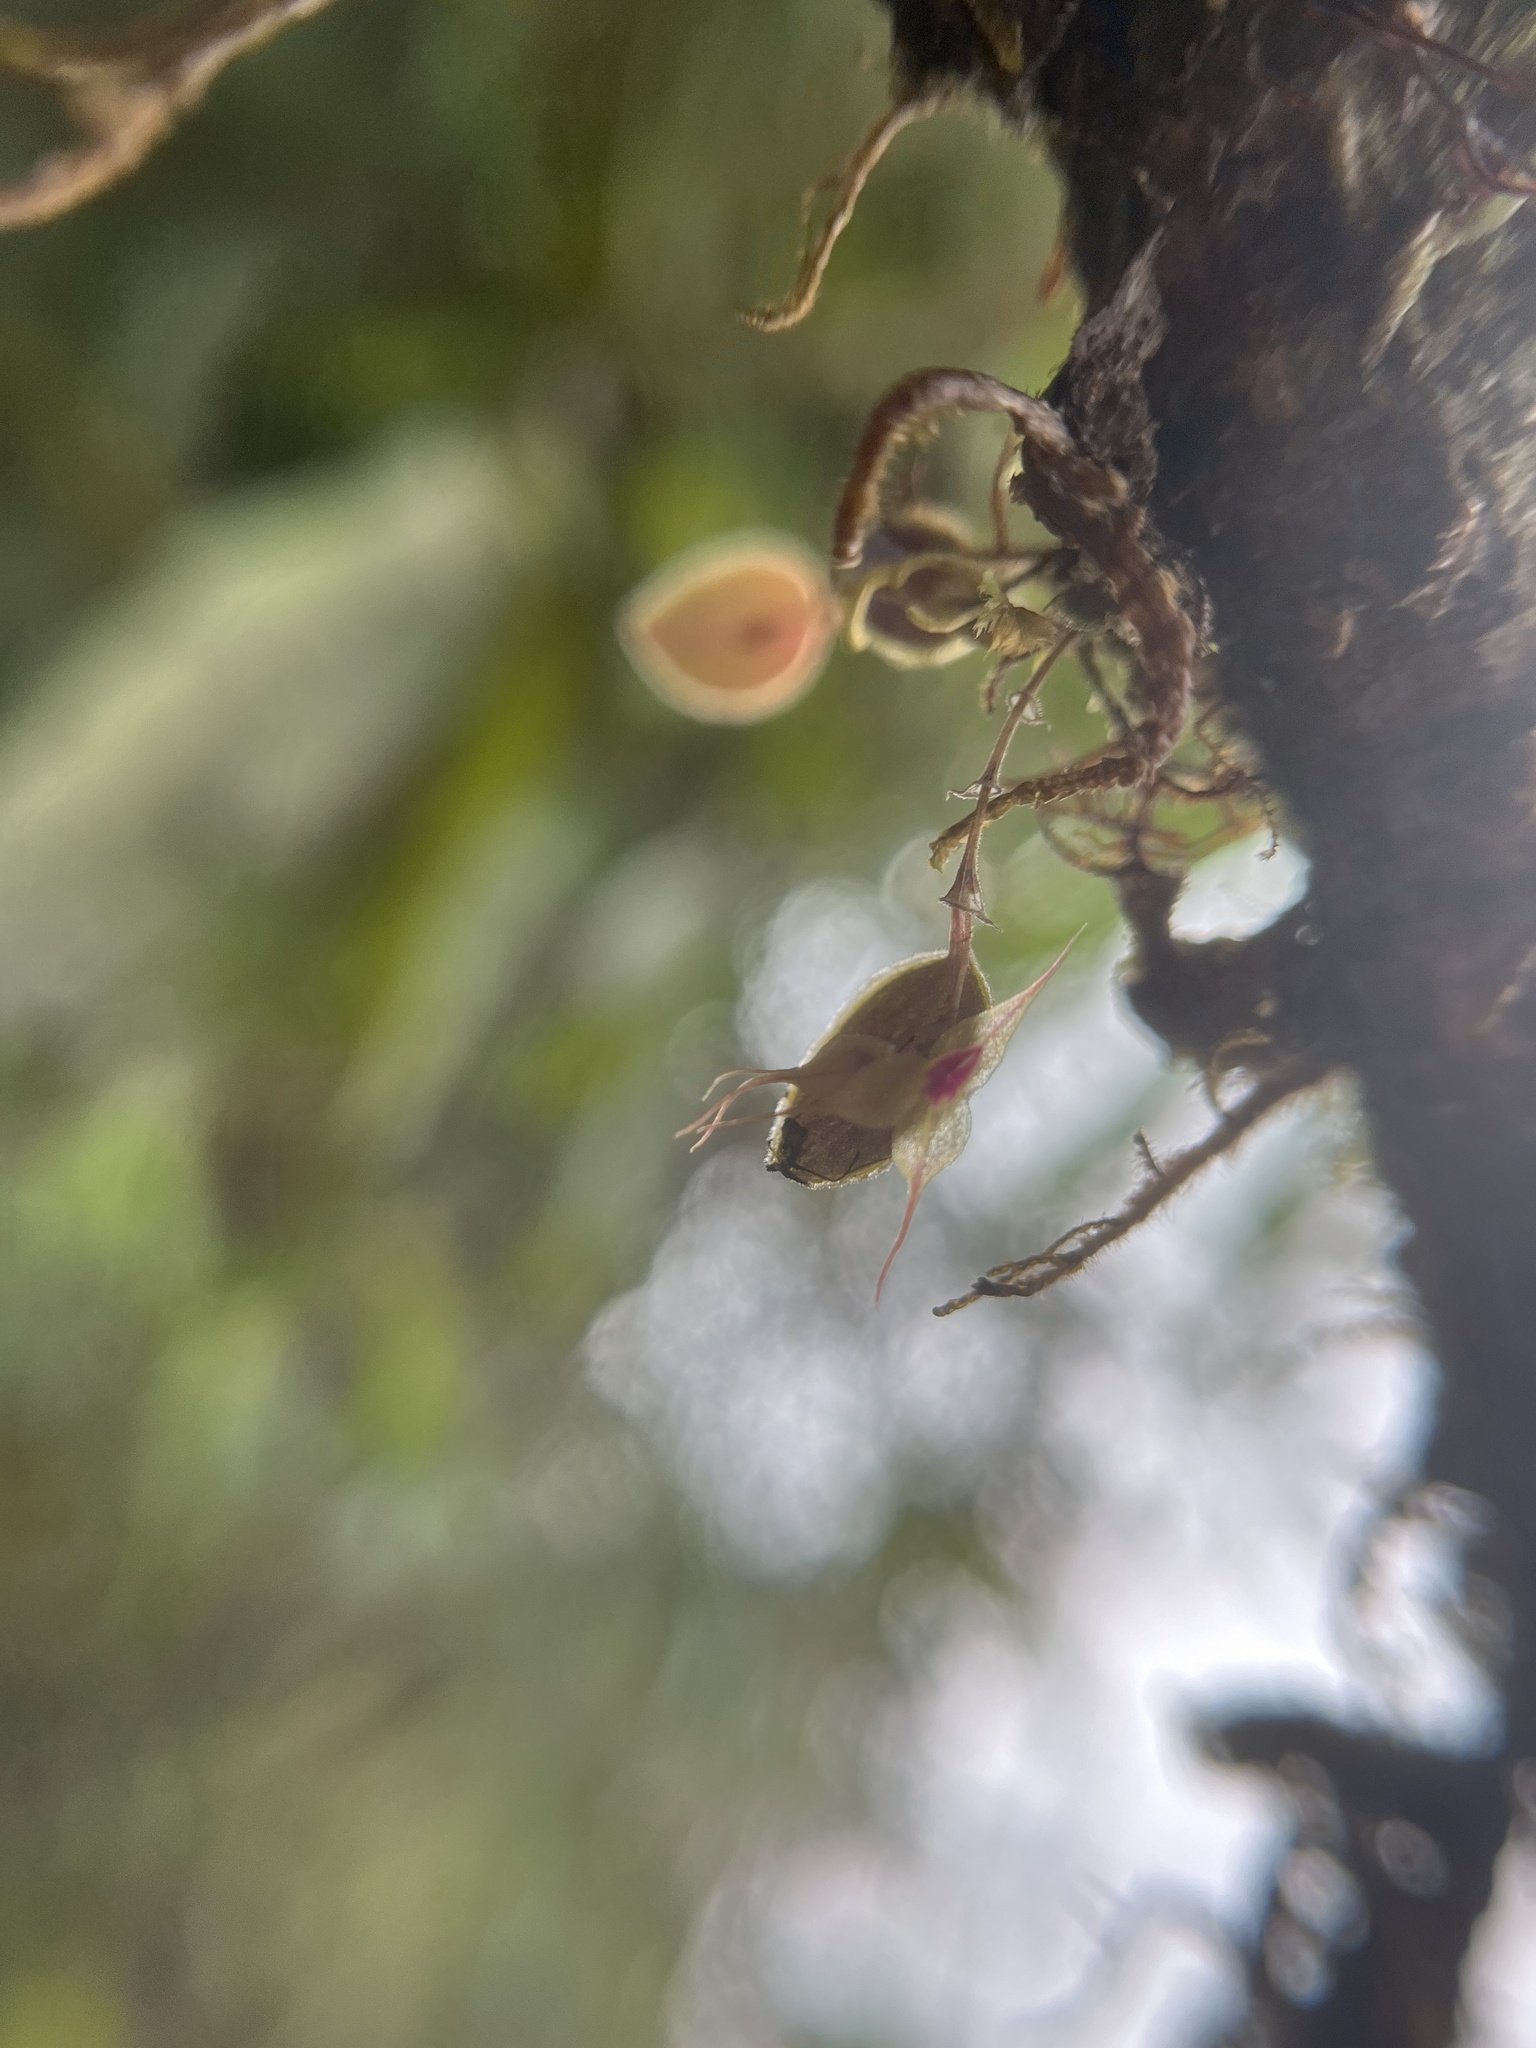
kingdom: Plantae
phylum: Tracheophyta
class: Liliopsida
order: Asparagales
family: Orchidaceae
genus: Lepanthes
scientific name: Lepanthes limbata
